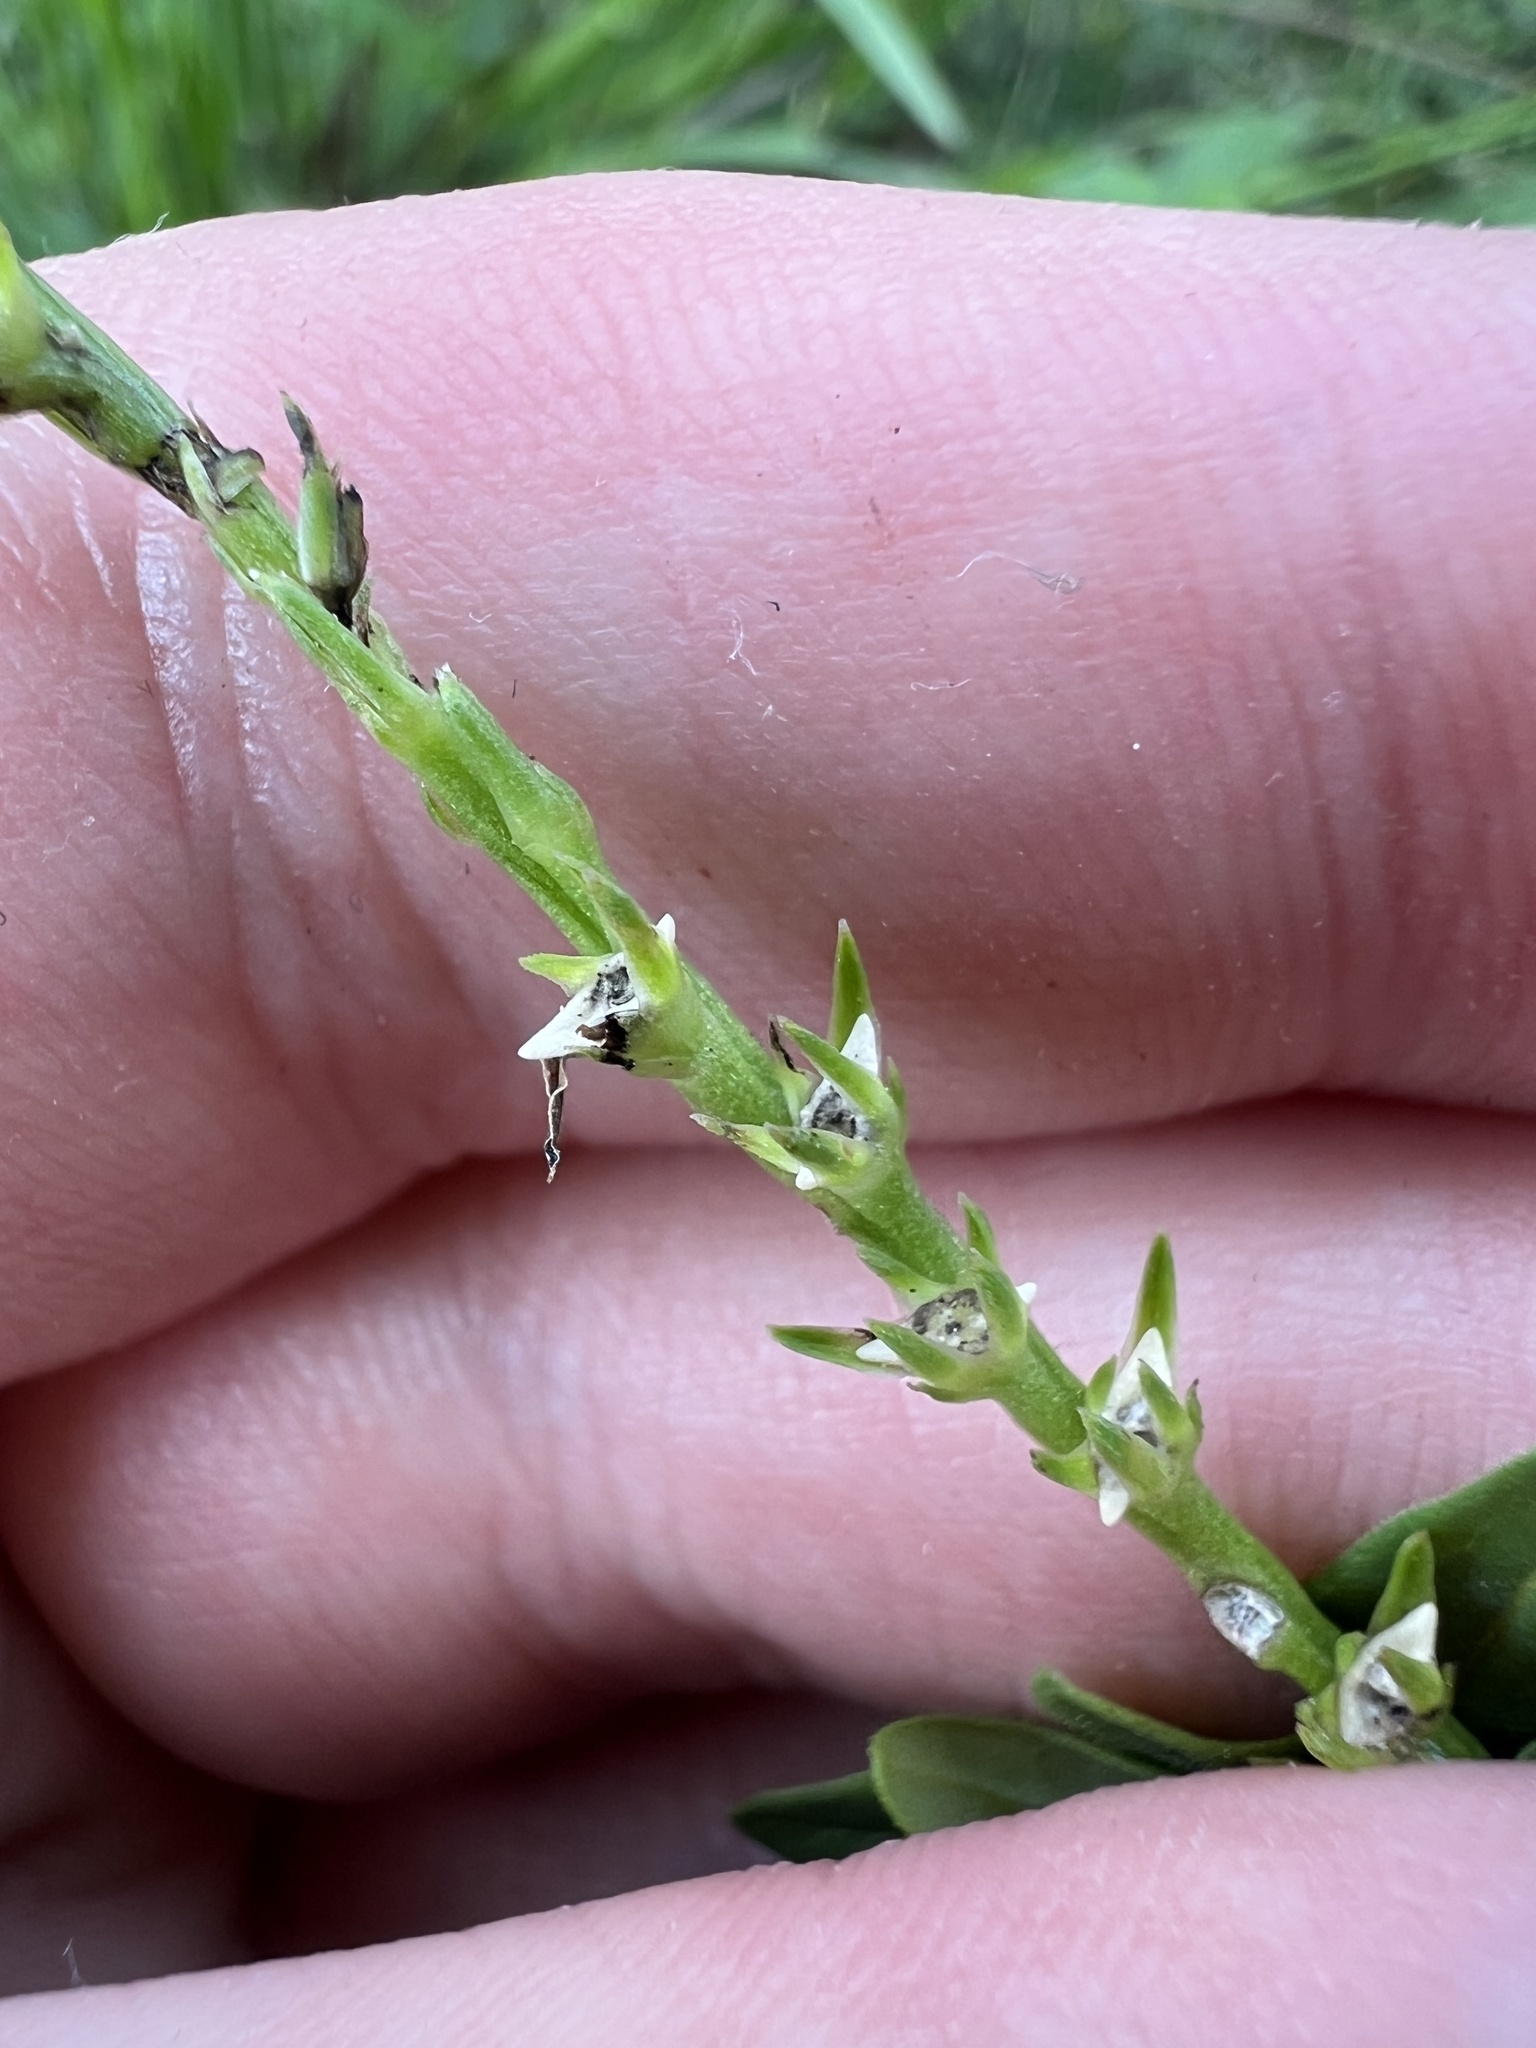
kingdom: Plantae
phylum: Tracheophyta
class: Magnoliopsida
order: Gentianales
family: Loganiaceae
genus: Spigelia
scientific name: Spigelia anthelmia
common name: West indian-pink
